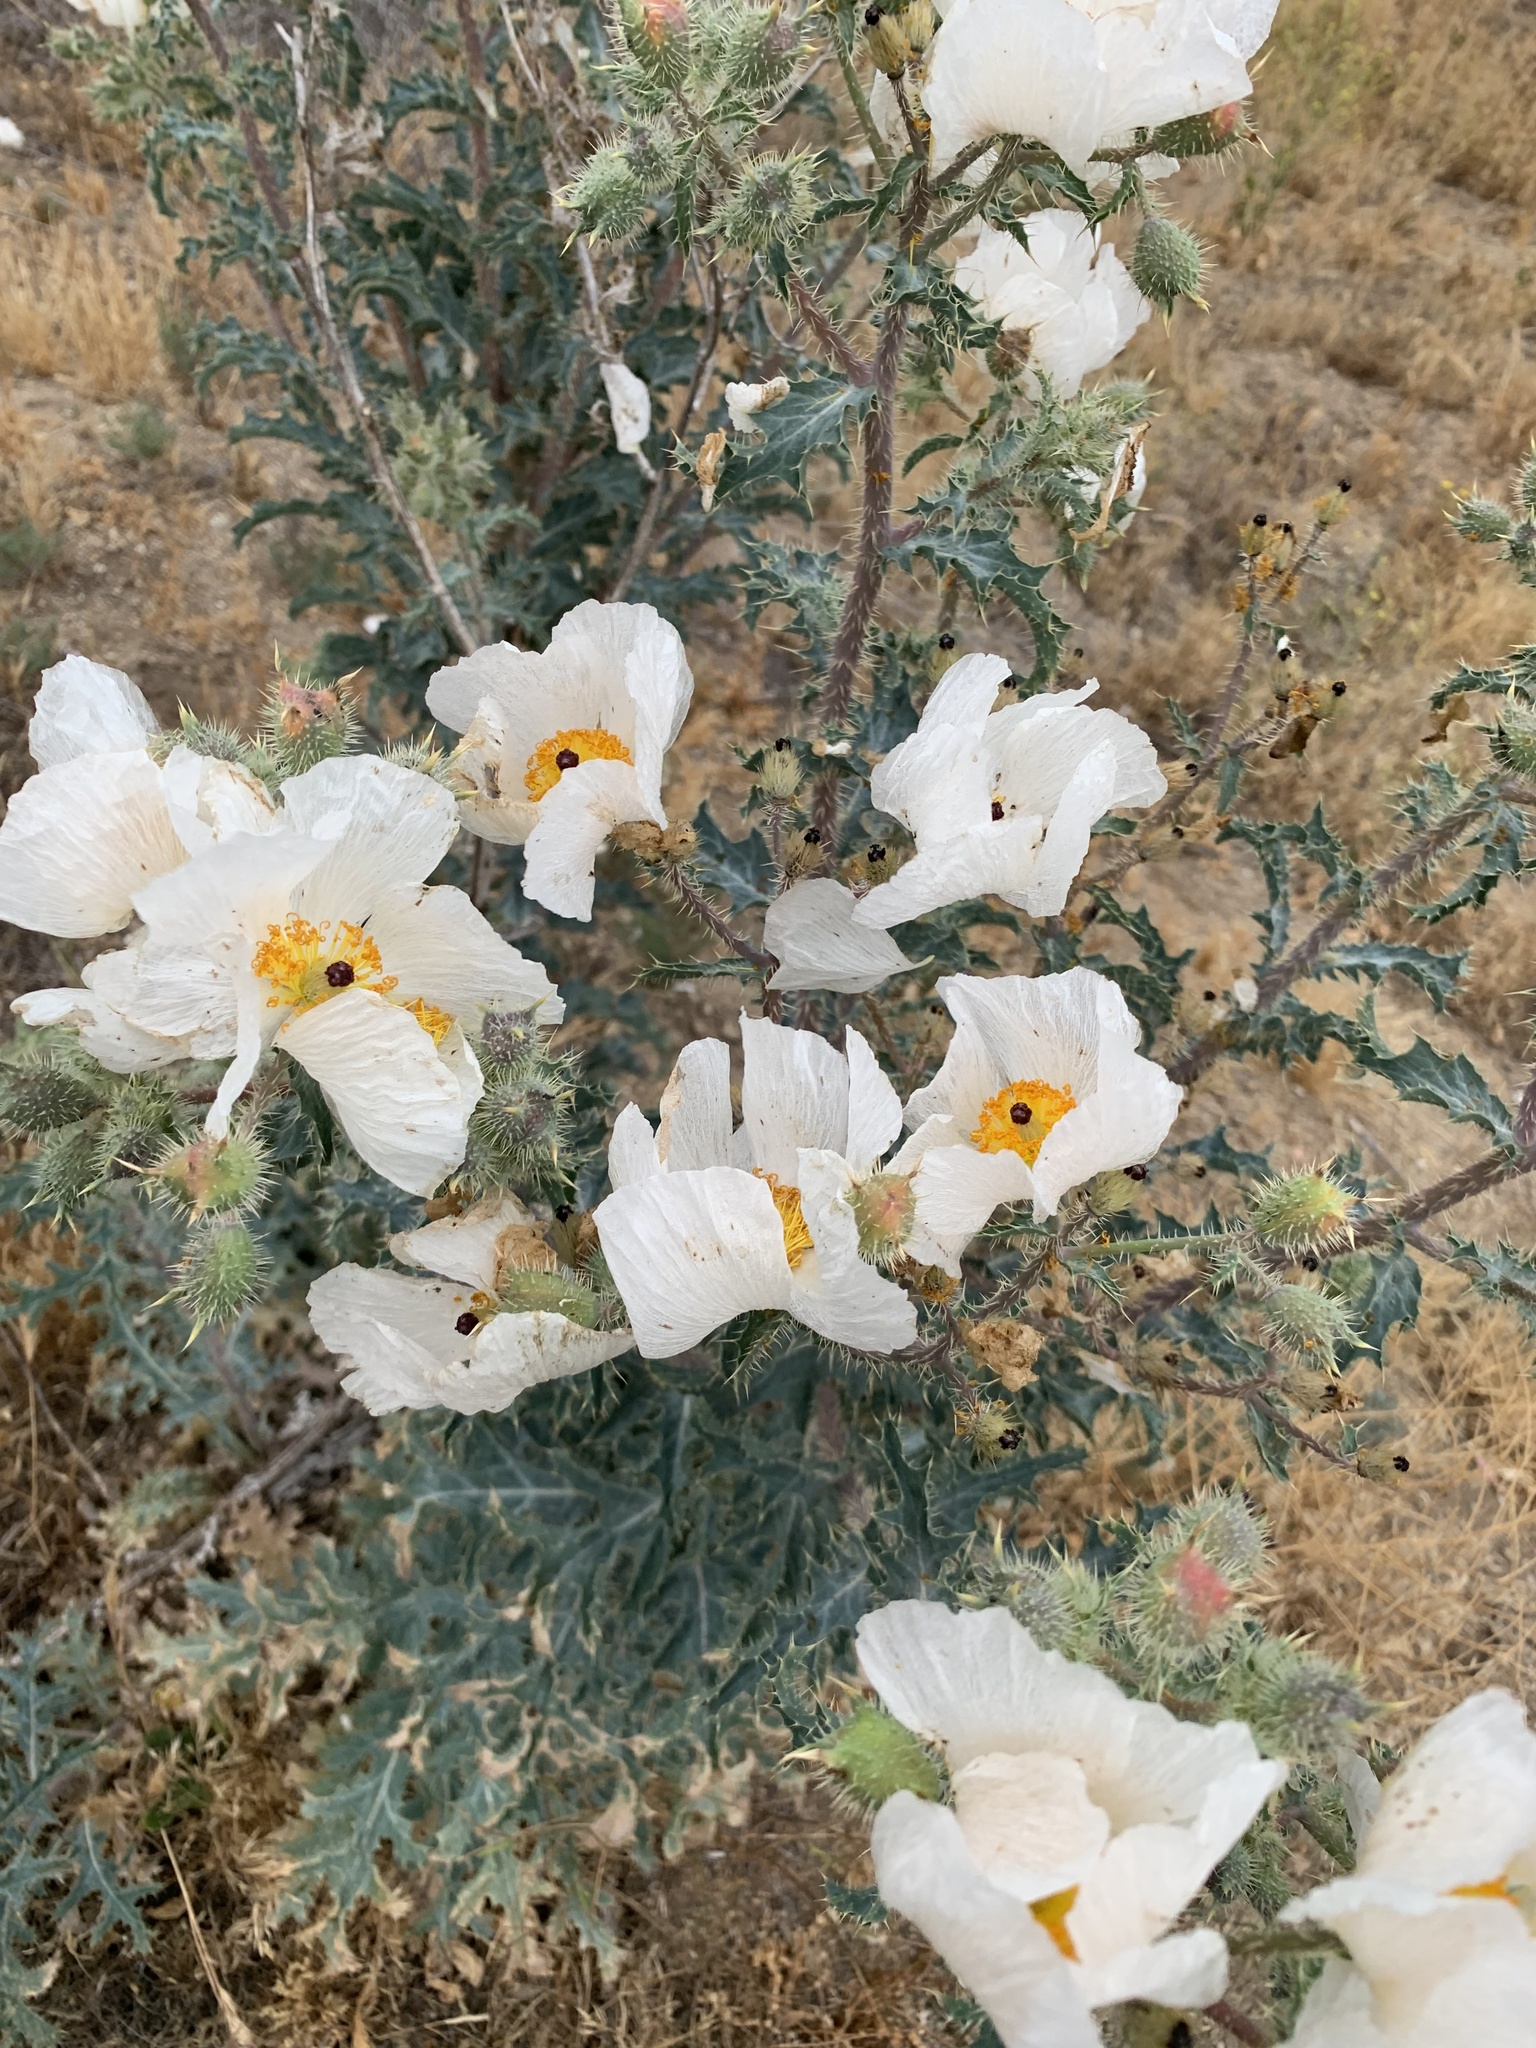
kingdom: Plantae
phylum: Tracheophyta
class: Magnoliopsida
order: Ranunculales
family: Papaveraceae
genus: Argemone
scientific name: Argemone munita
